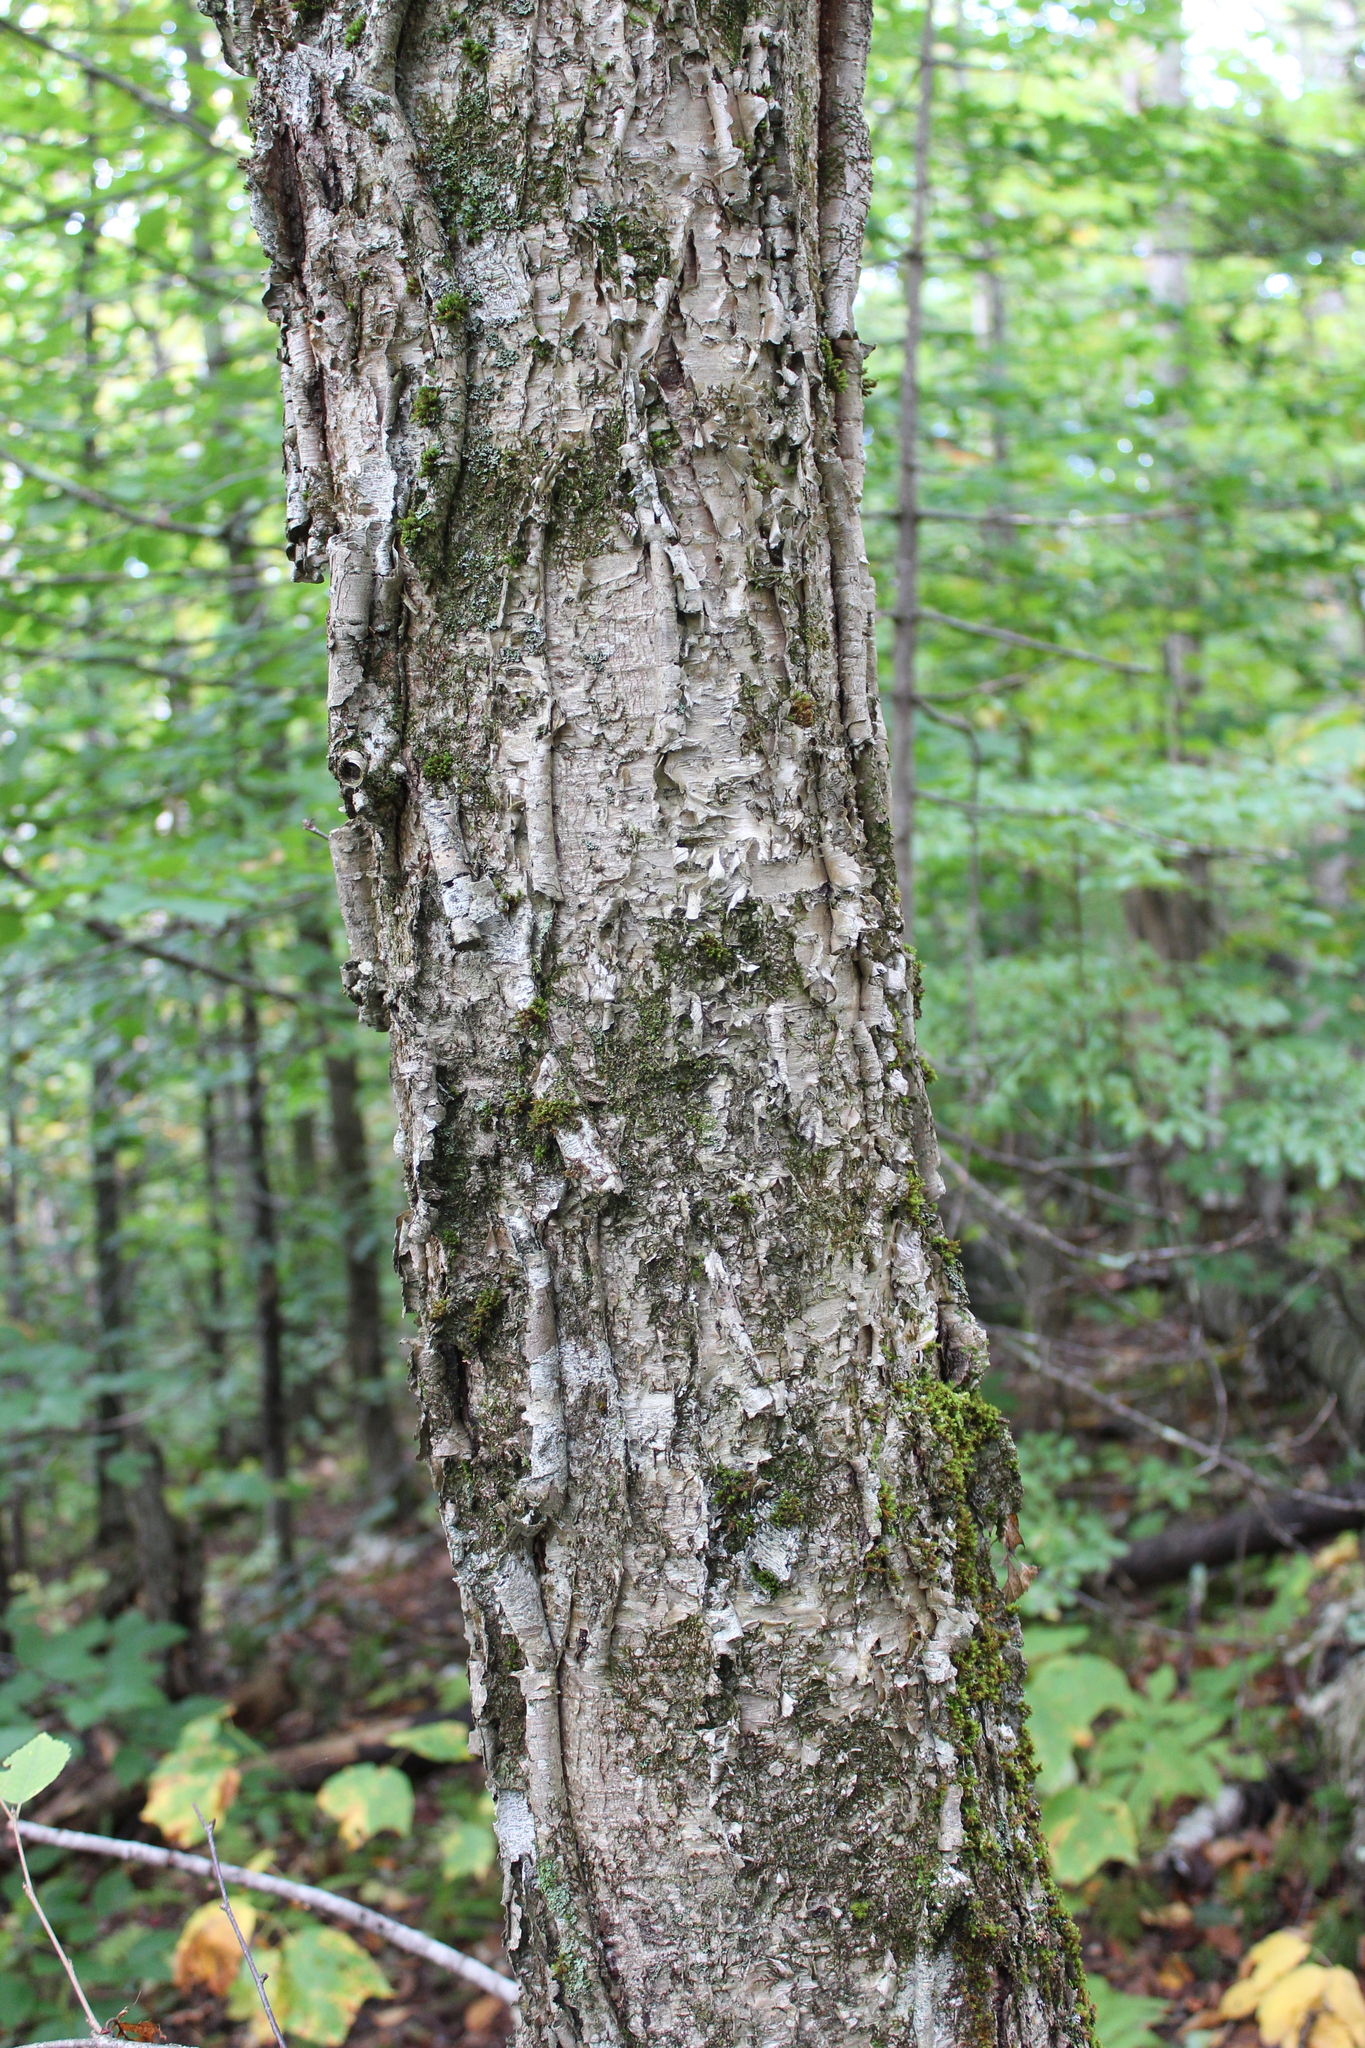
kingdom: Plantae
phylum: Tracheophyta
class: Magnoliopsida
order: Fagales
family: Betulaceae
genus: Betula
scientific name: Betula alleghaniensis
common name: Yellow birch
